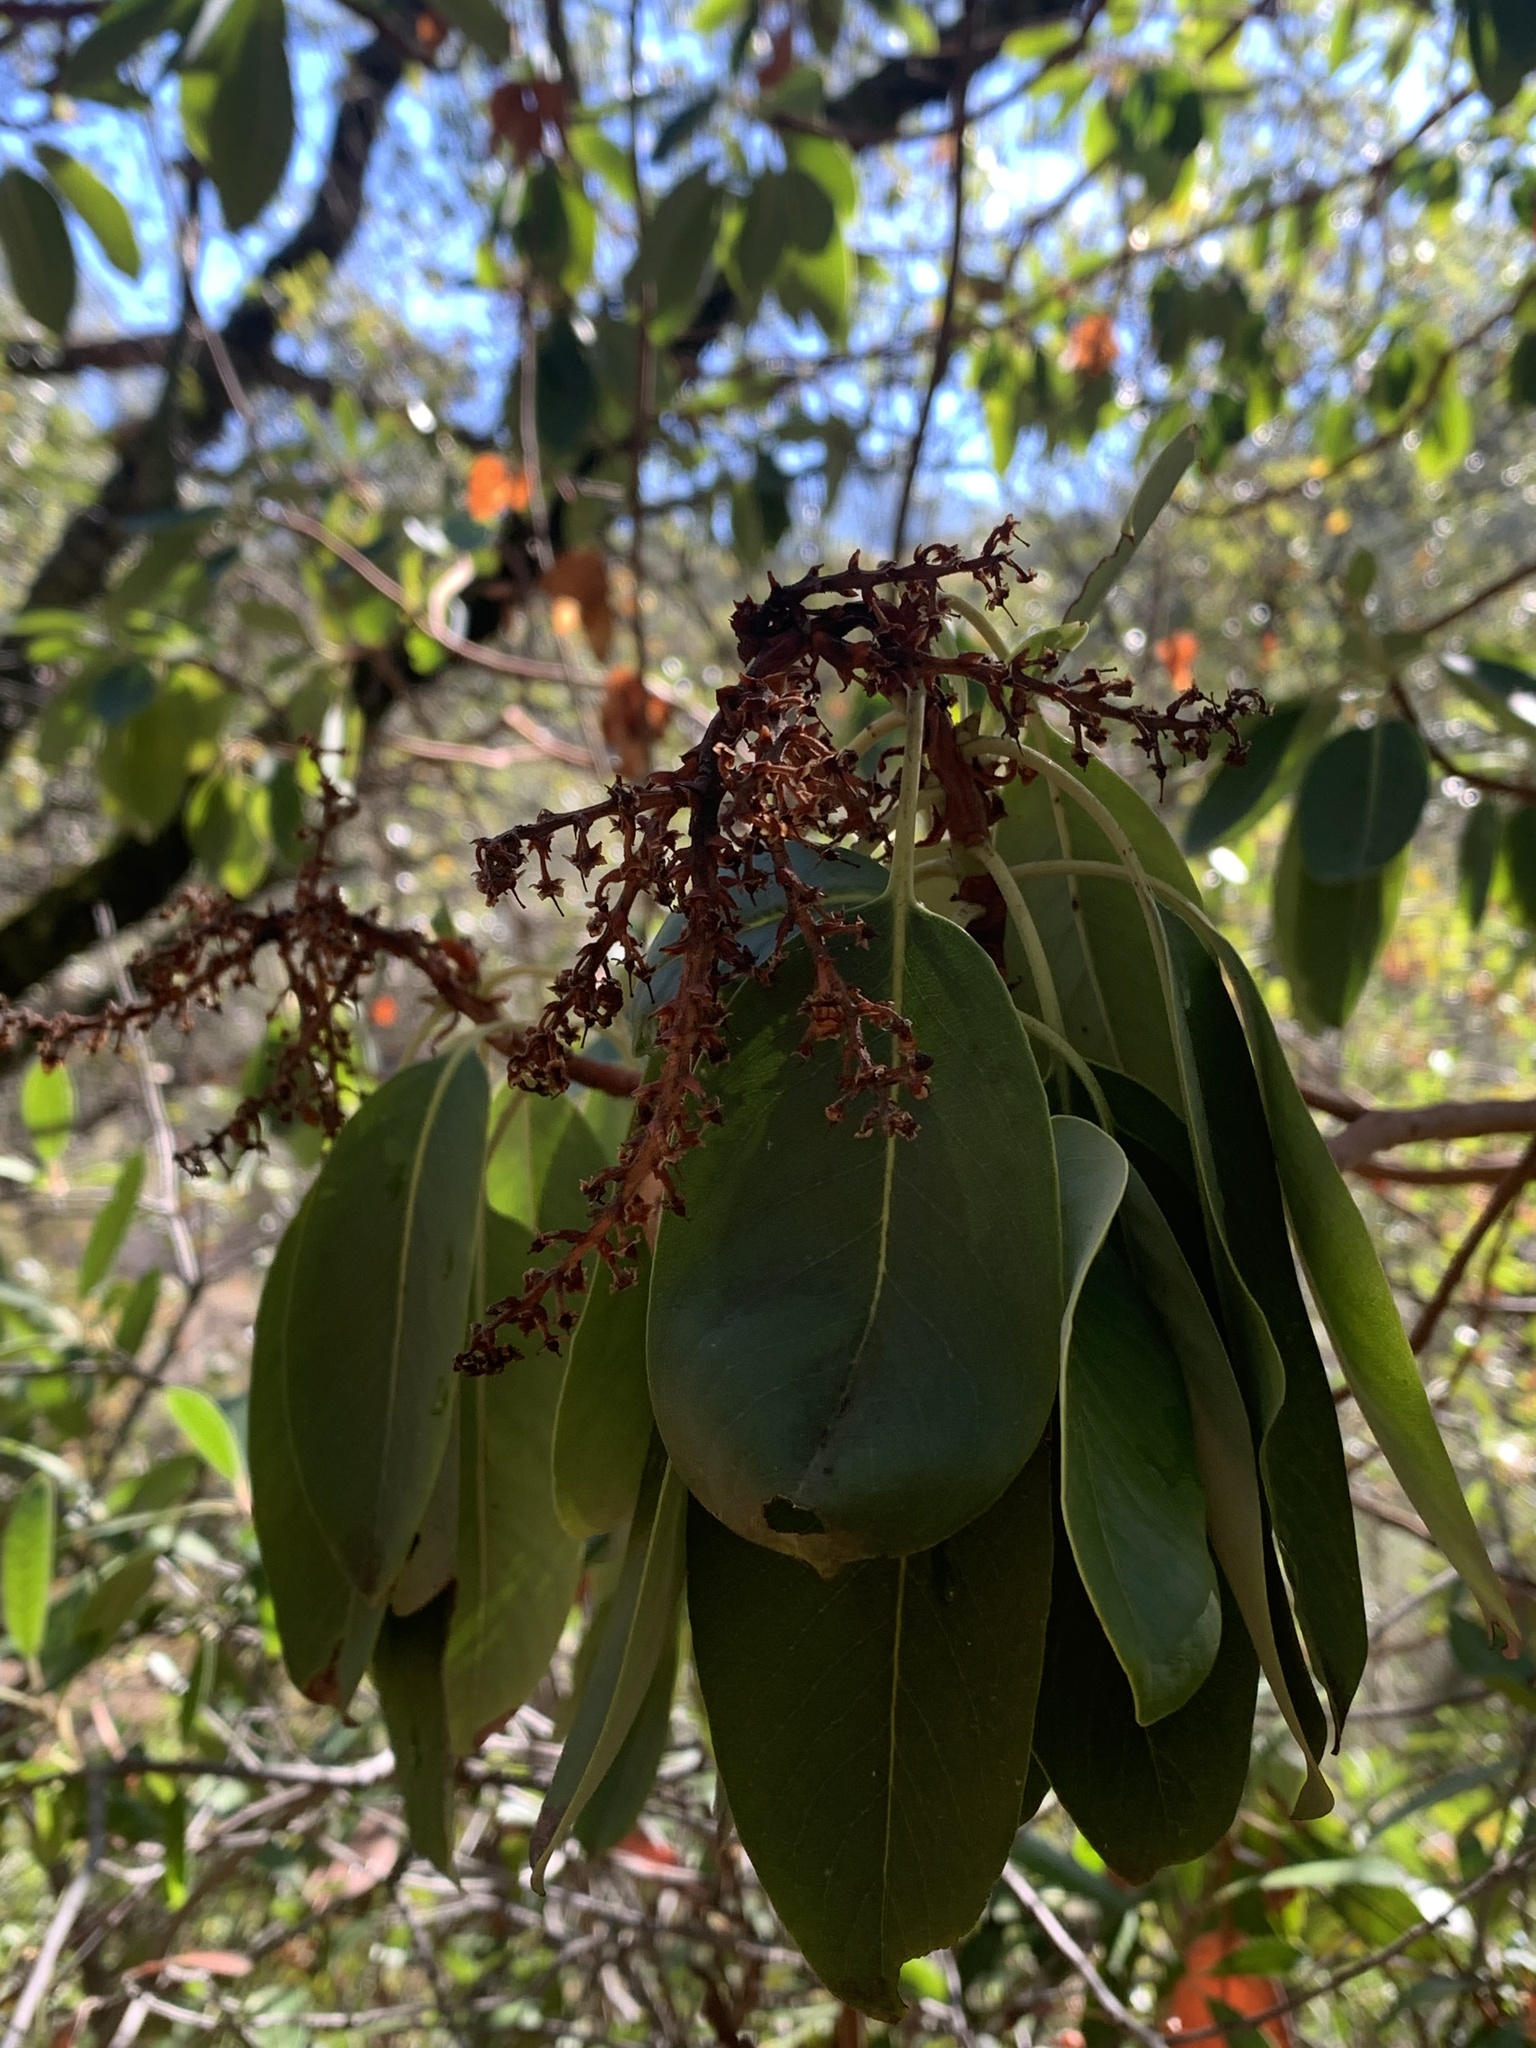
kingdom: Plantae
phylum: Tracheophyta
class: Magnoliopsida
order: Ericales
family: Ericaceae
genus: Arbutus
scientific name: Arbutus menziesii
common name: Pacific madrone
